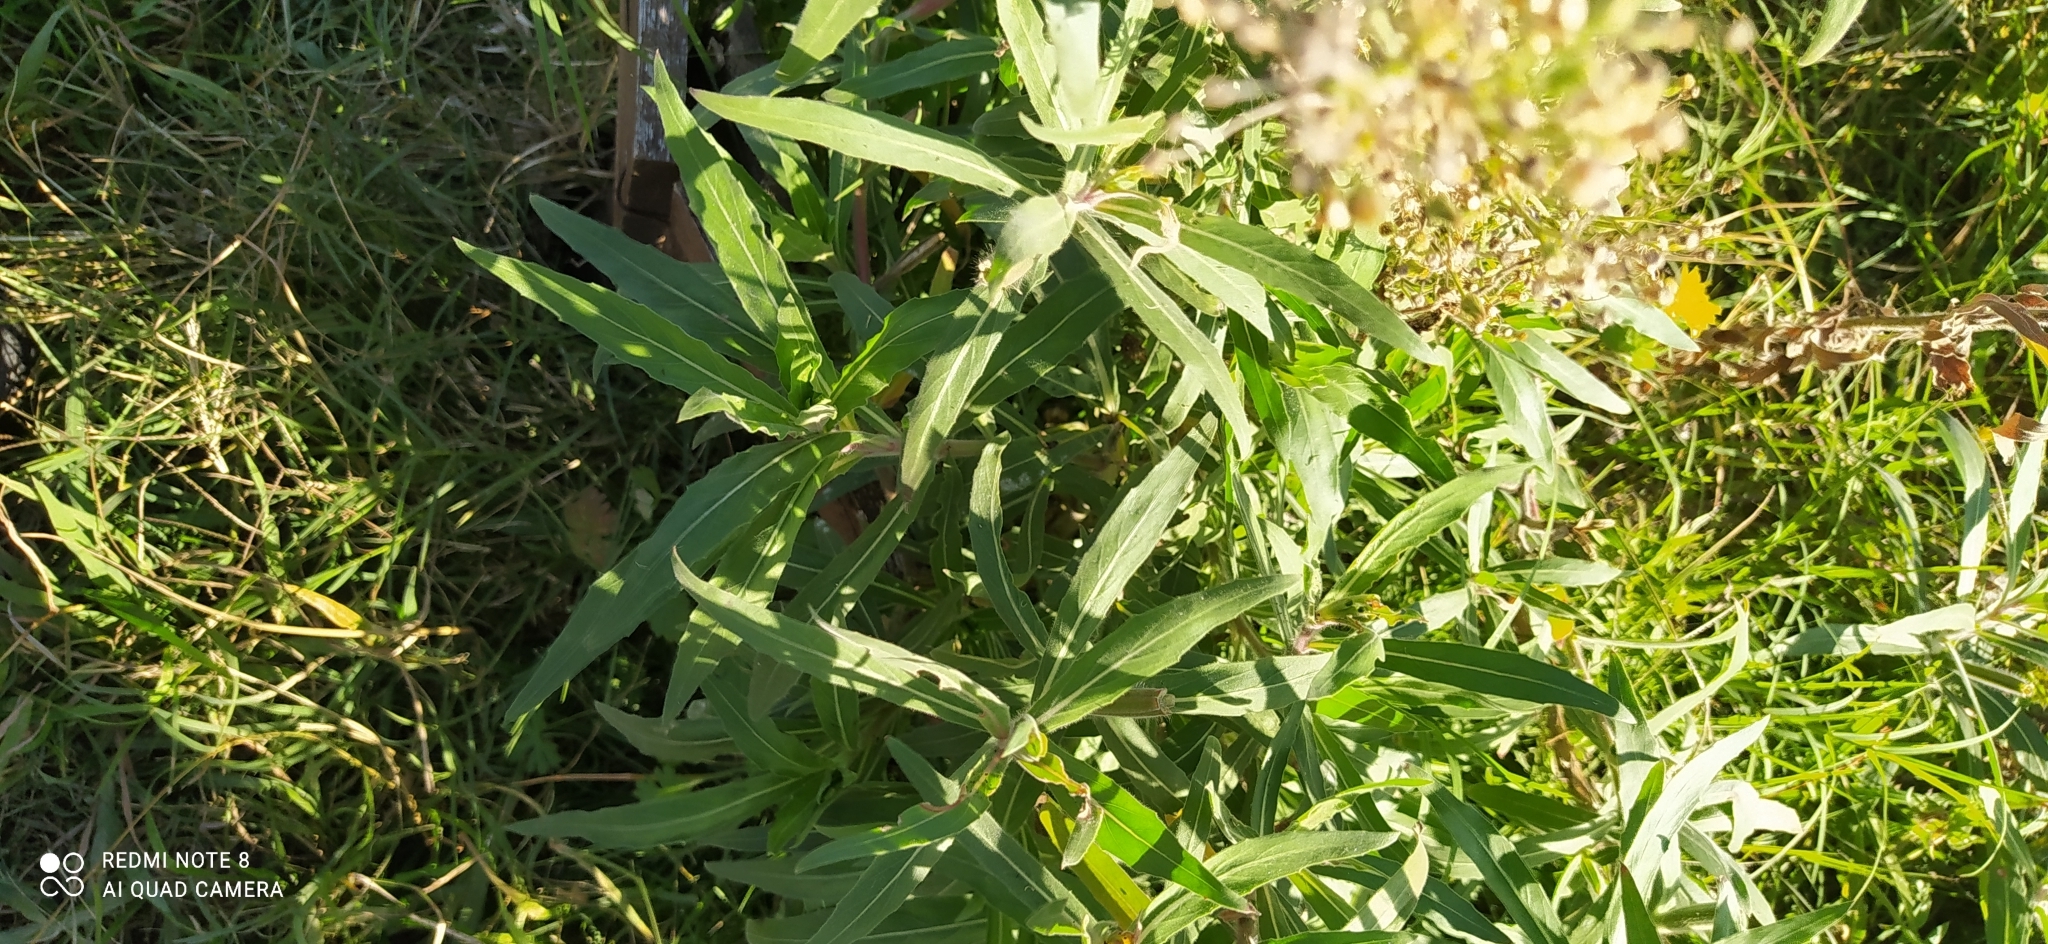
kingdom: Plantae
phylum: Tracheophyta
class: Magnoliopsida
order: Myrtales
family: Onagraceae
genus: Oenothera
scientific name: Oenothera affinis
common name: Longflower evening primrose
